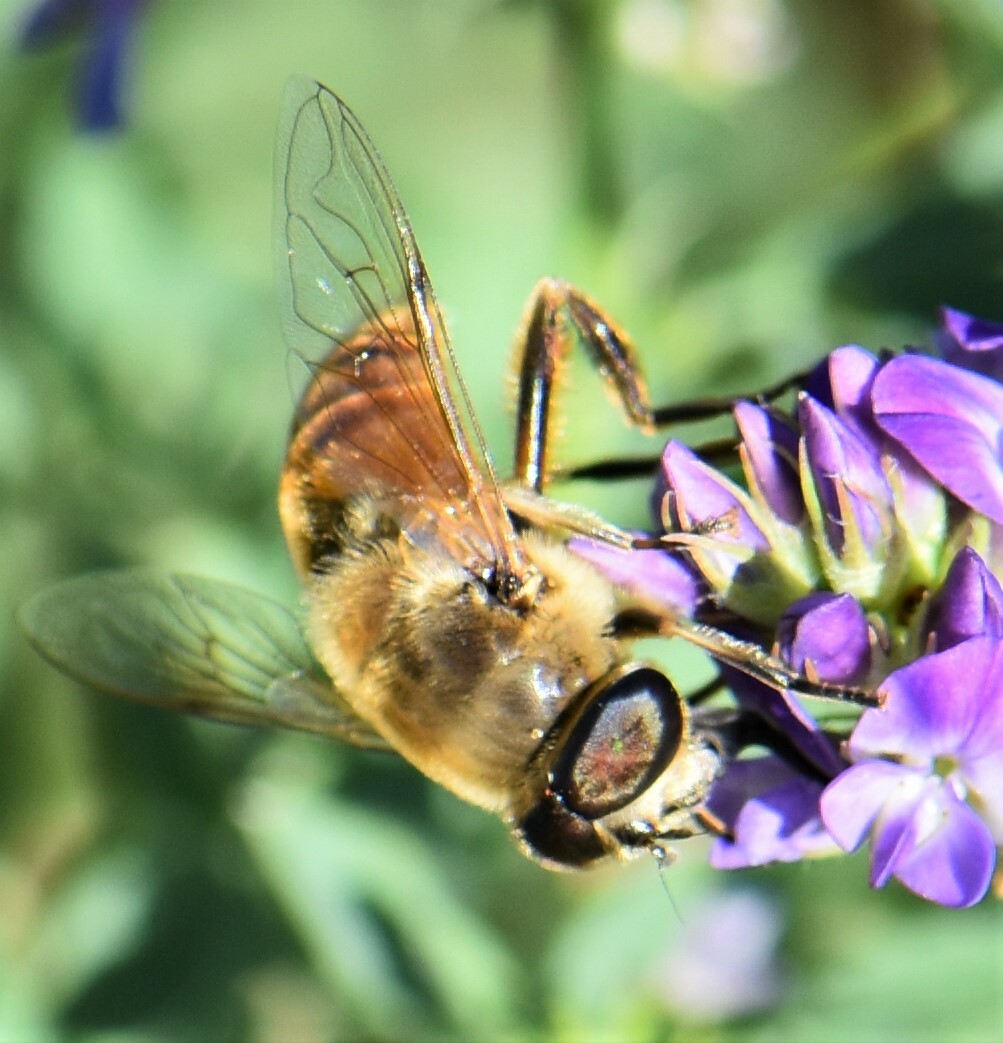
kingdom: Animalia
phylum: Arthropoda
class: Insecta
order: Diptera
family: Syrphidae
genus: Eristalis
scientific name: Eristalis tenax
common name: Drone fly
